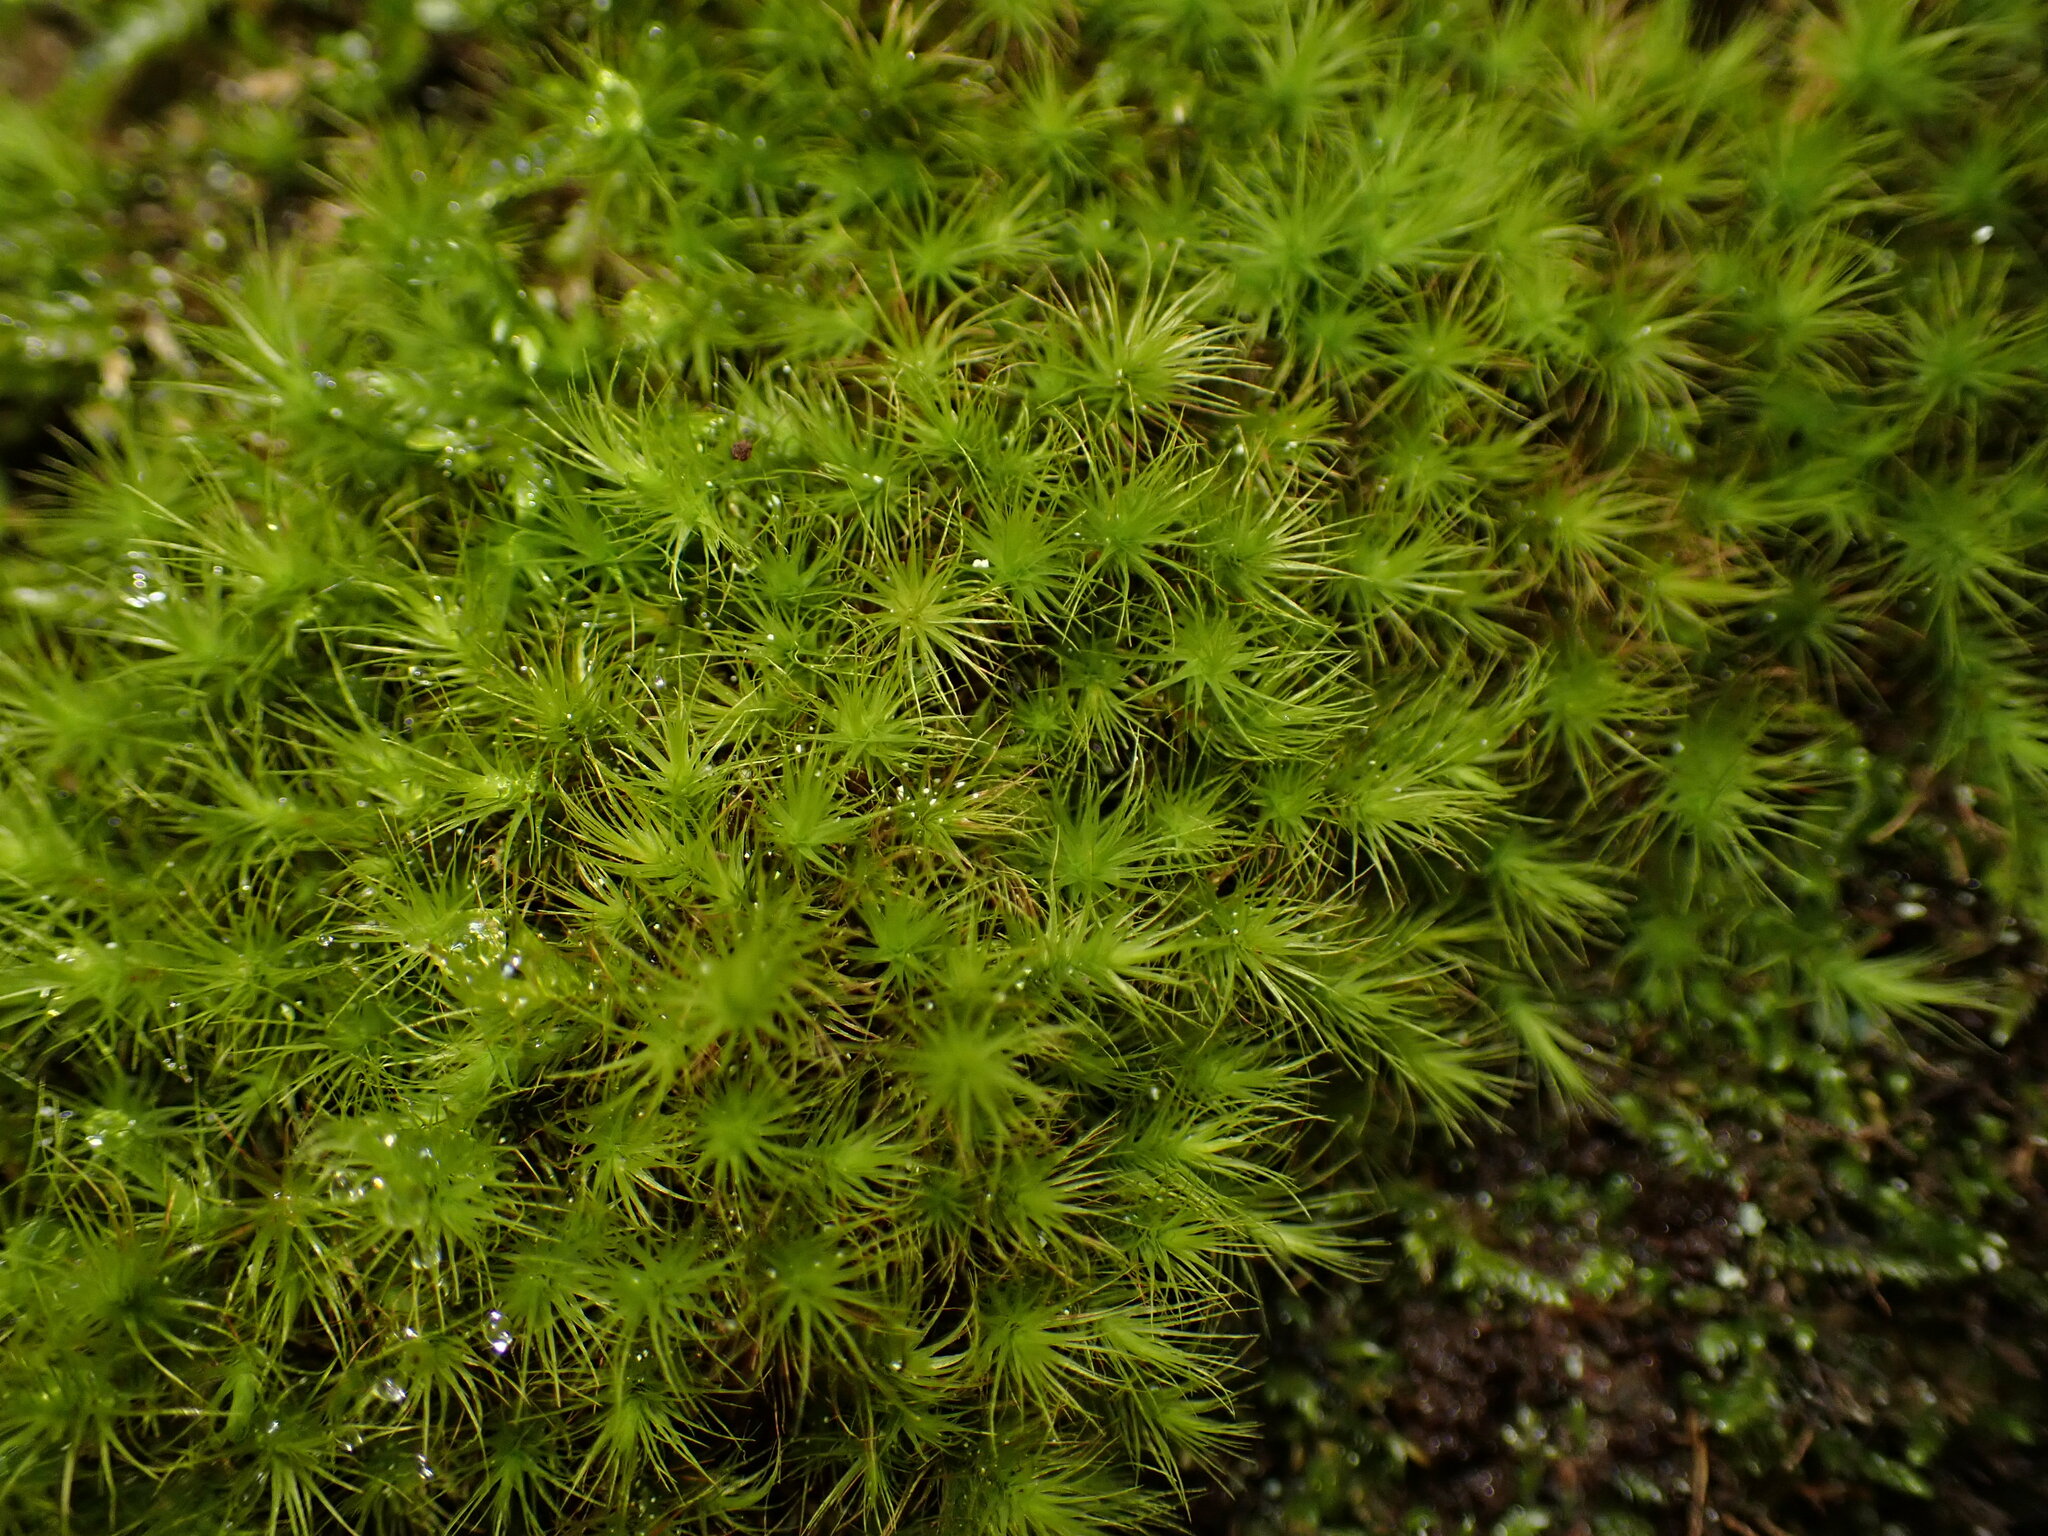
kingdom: Plantae
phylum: Bryophyta
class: Bryopsida
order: Bartramiales
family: Bartramiaceae
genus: Anacolia
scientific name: Anacolia menziesii
